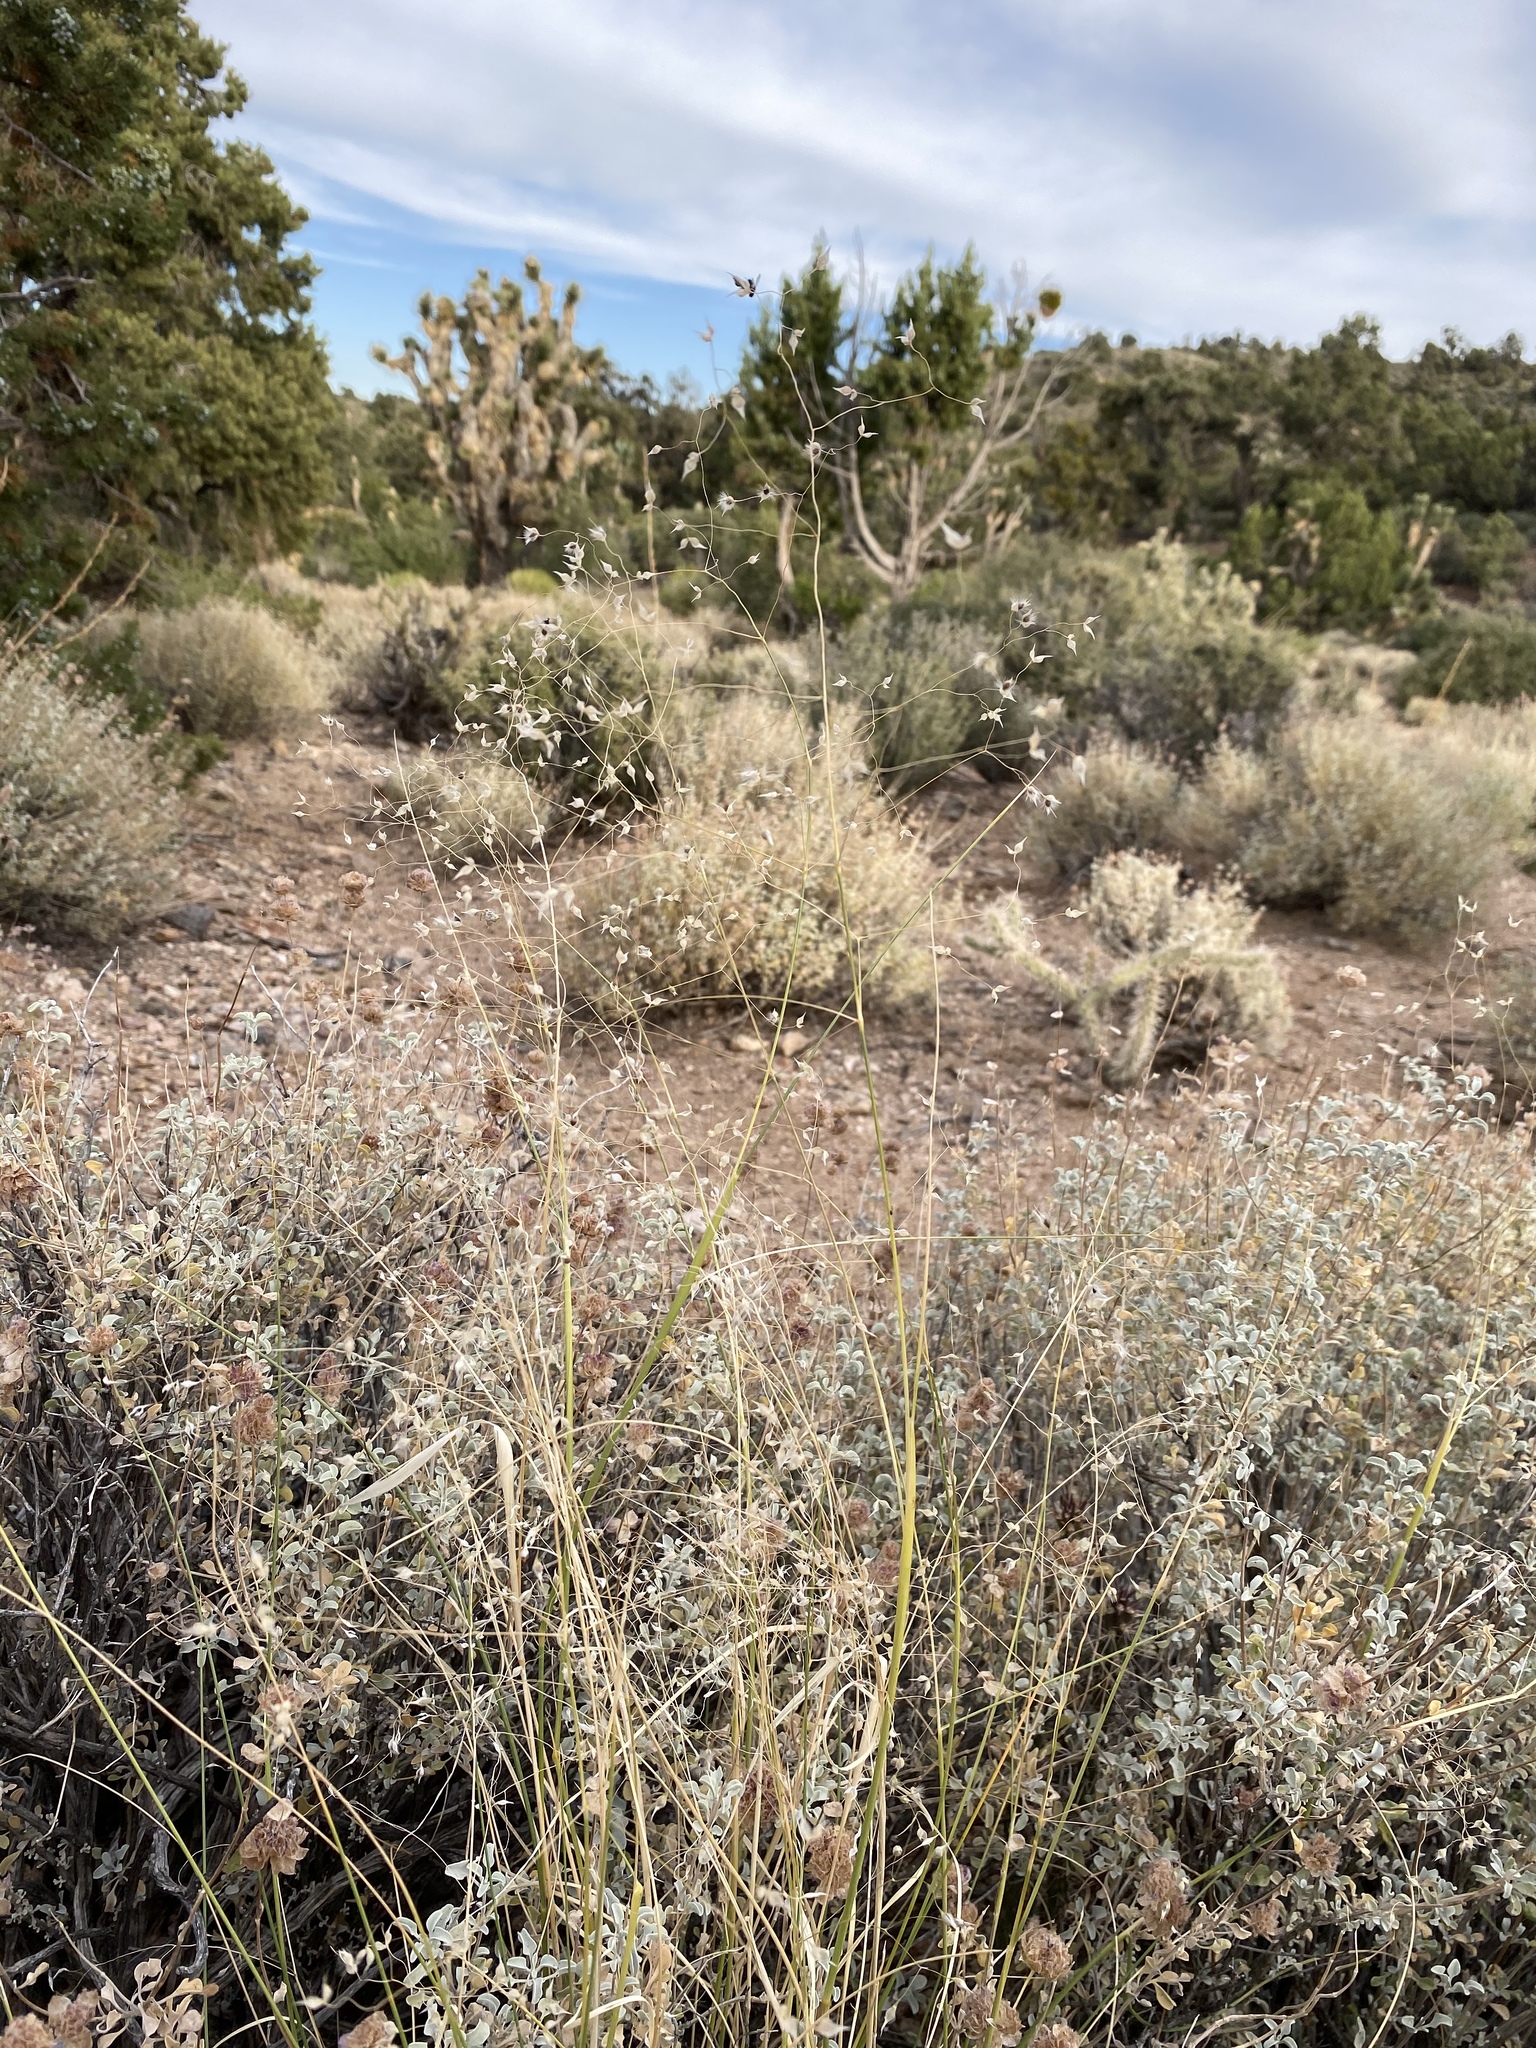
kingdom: Plantae
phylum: Tracheophyta
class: Liliopsida
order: Poales
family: Poaceae
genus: Eriocoma
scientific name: Eriocoma hymenoides
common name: Indian mountain ricegrass
